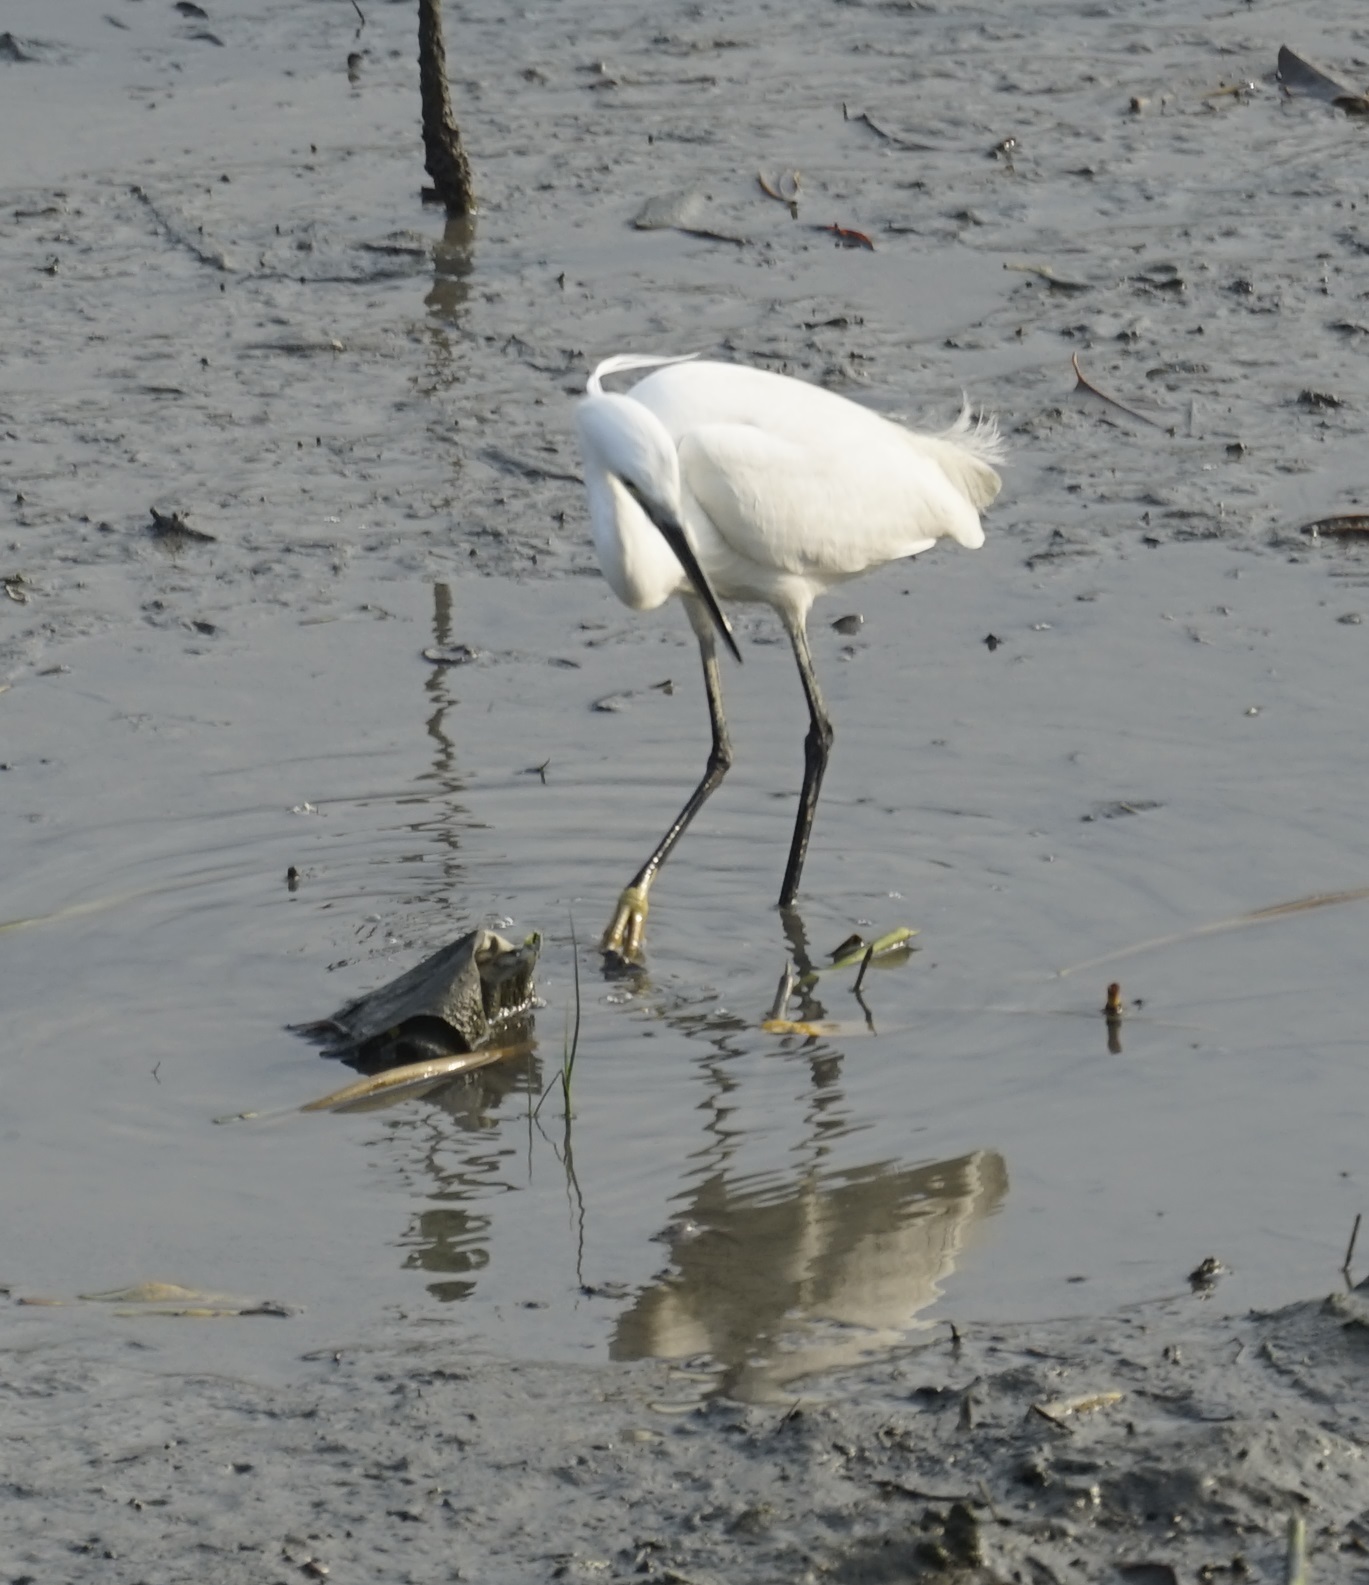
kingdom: Animalia
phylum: Chordata
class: Aves
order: Pelecaniformes
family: Ardeidae
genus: Egretta
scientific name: Egretta garzetta
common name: Little egret
